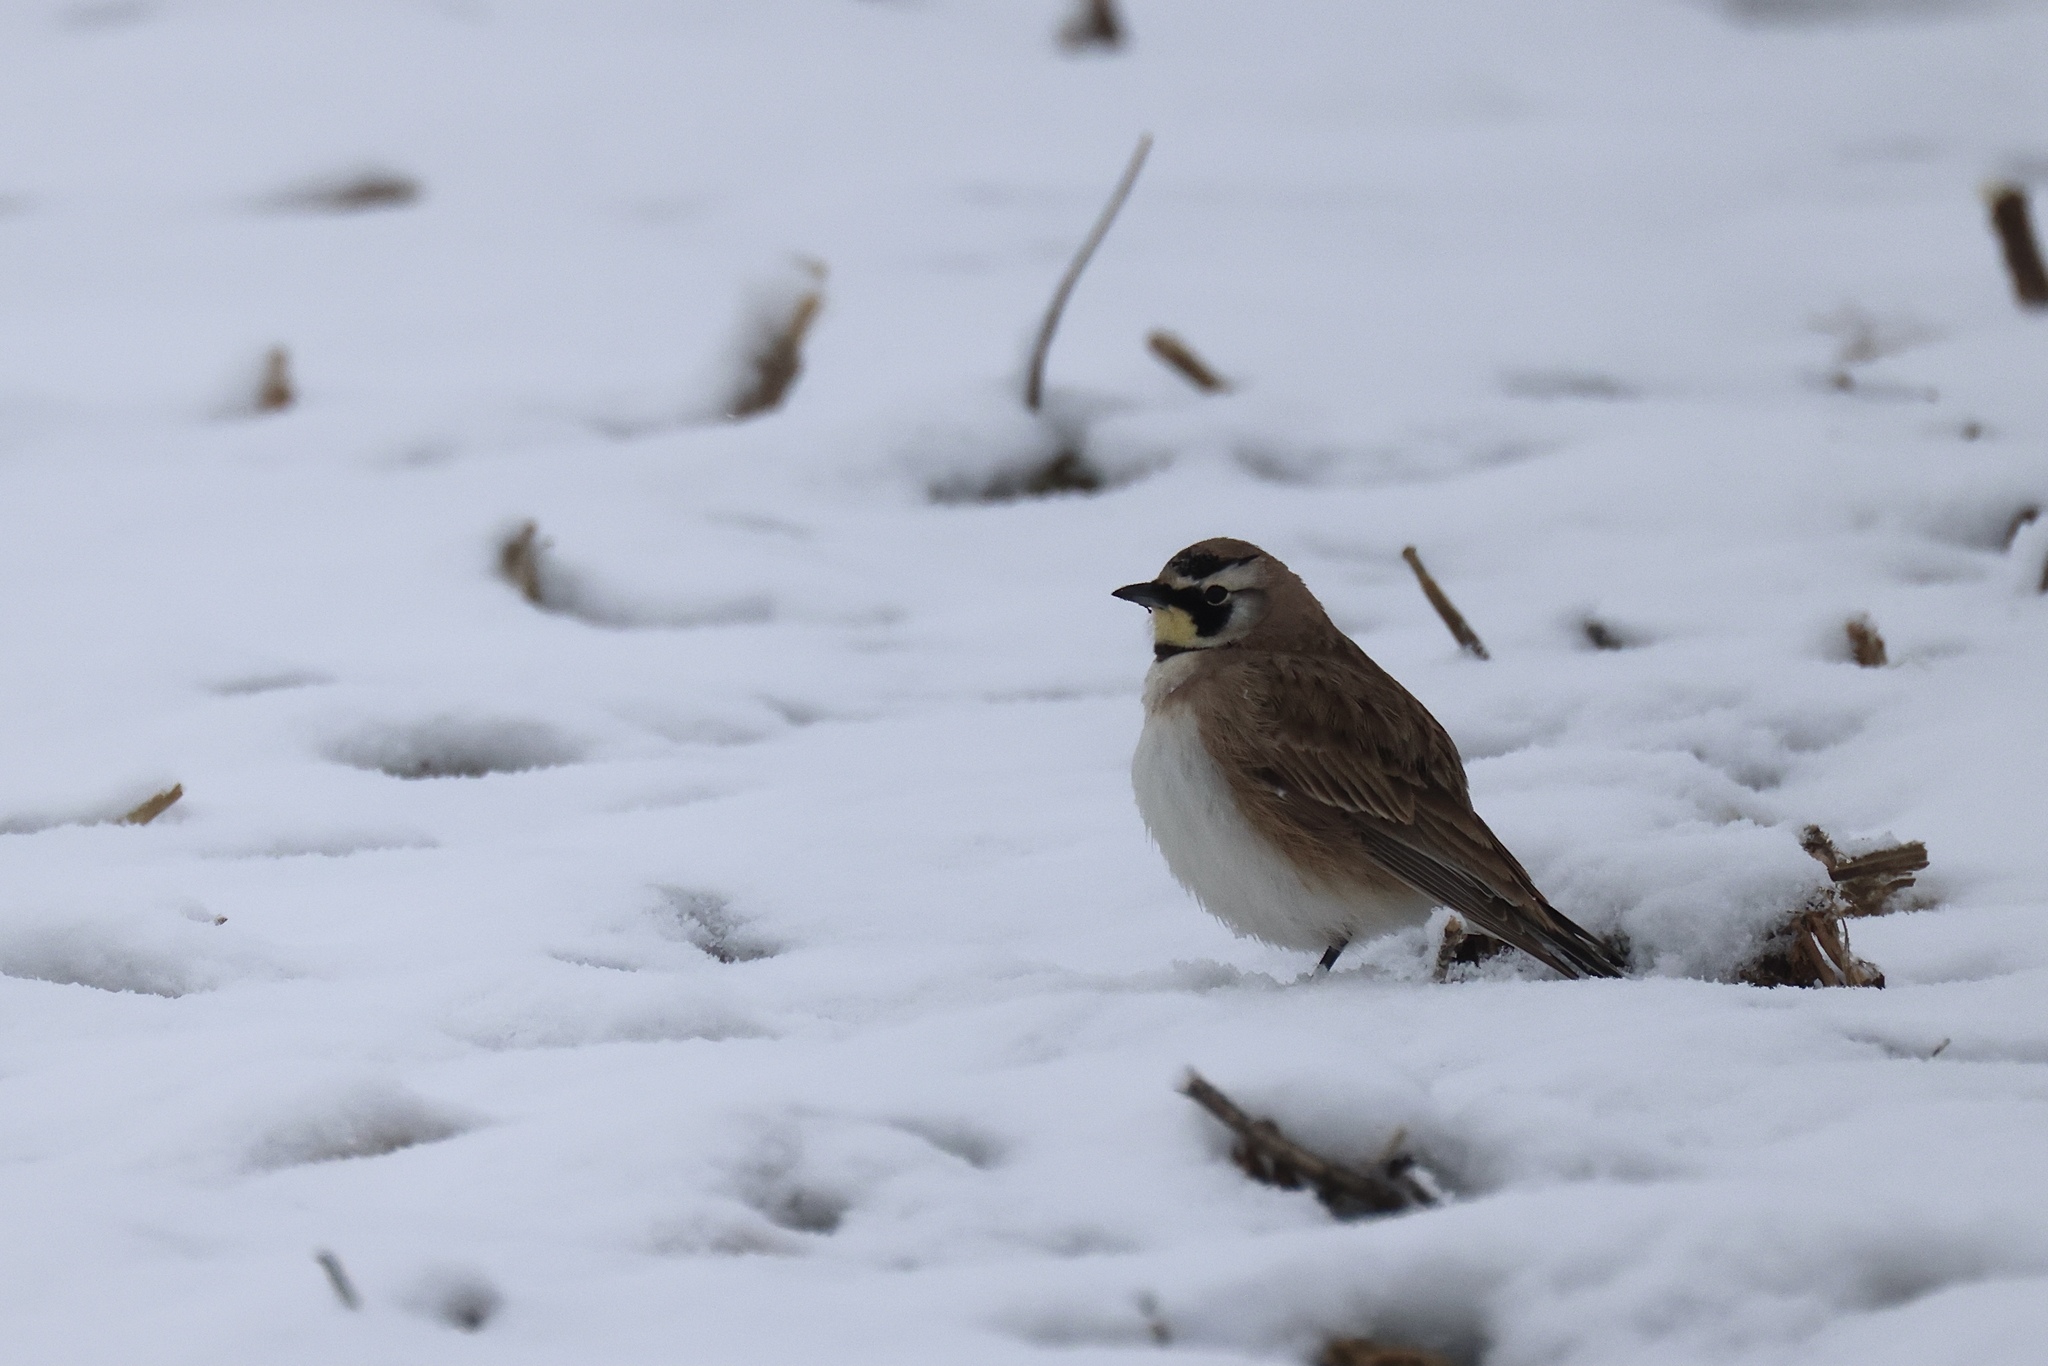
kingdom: Animalia
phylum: Chordata
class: Aves
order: Passeriformes
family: Alaudidae
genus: Eremophila
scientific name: Eremophila alpestris
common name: Horned lark
